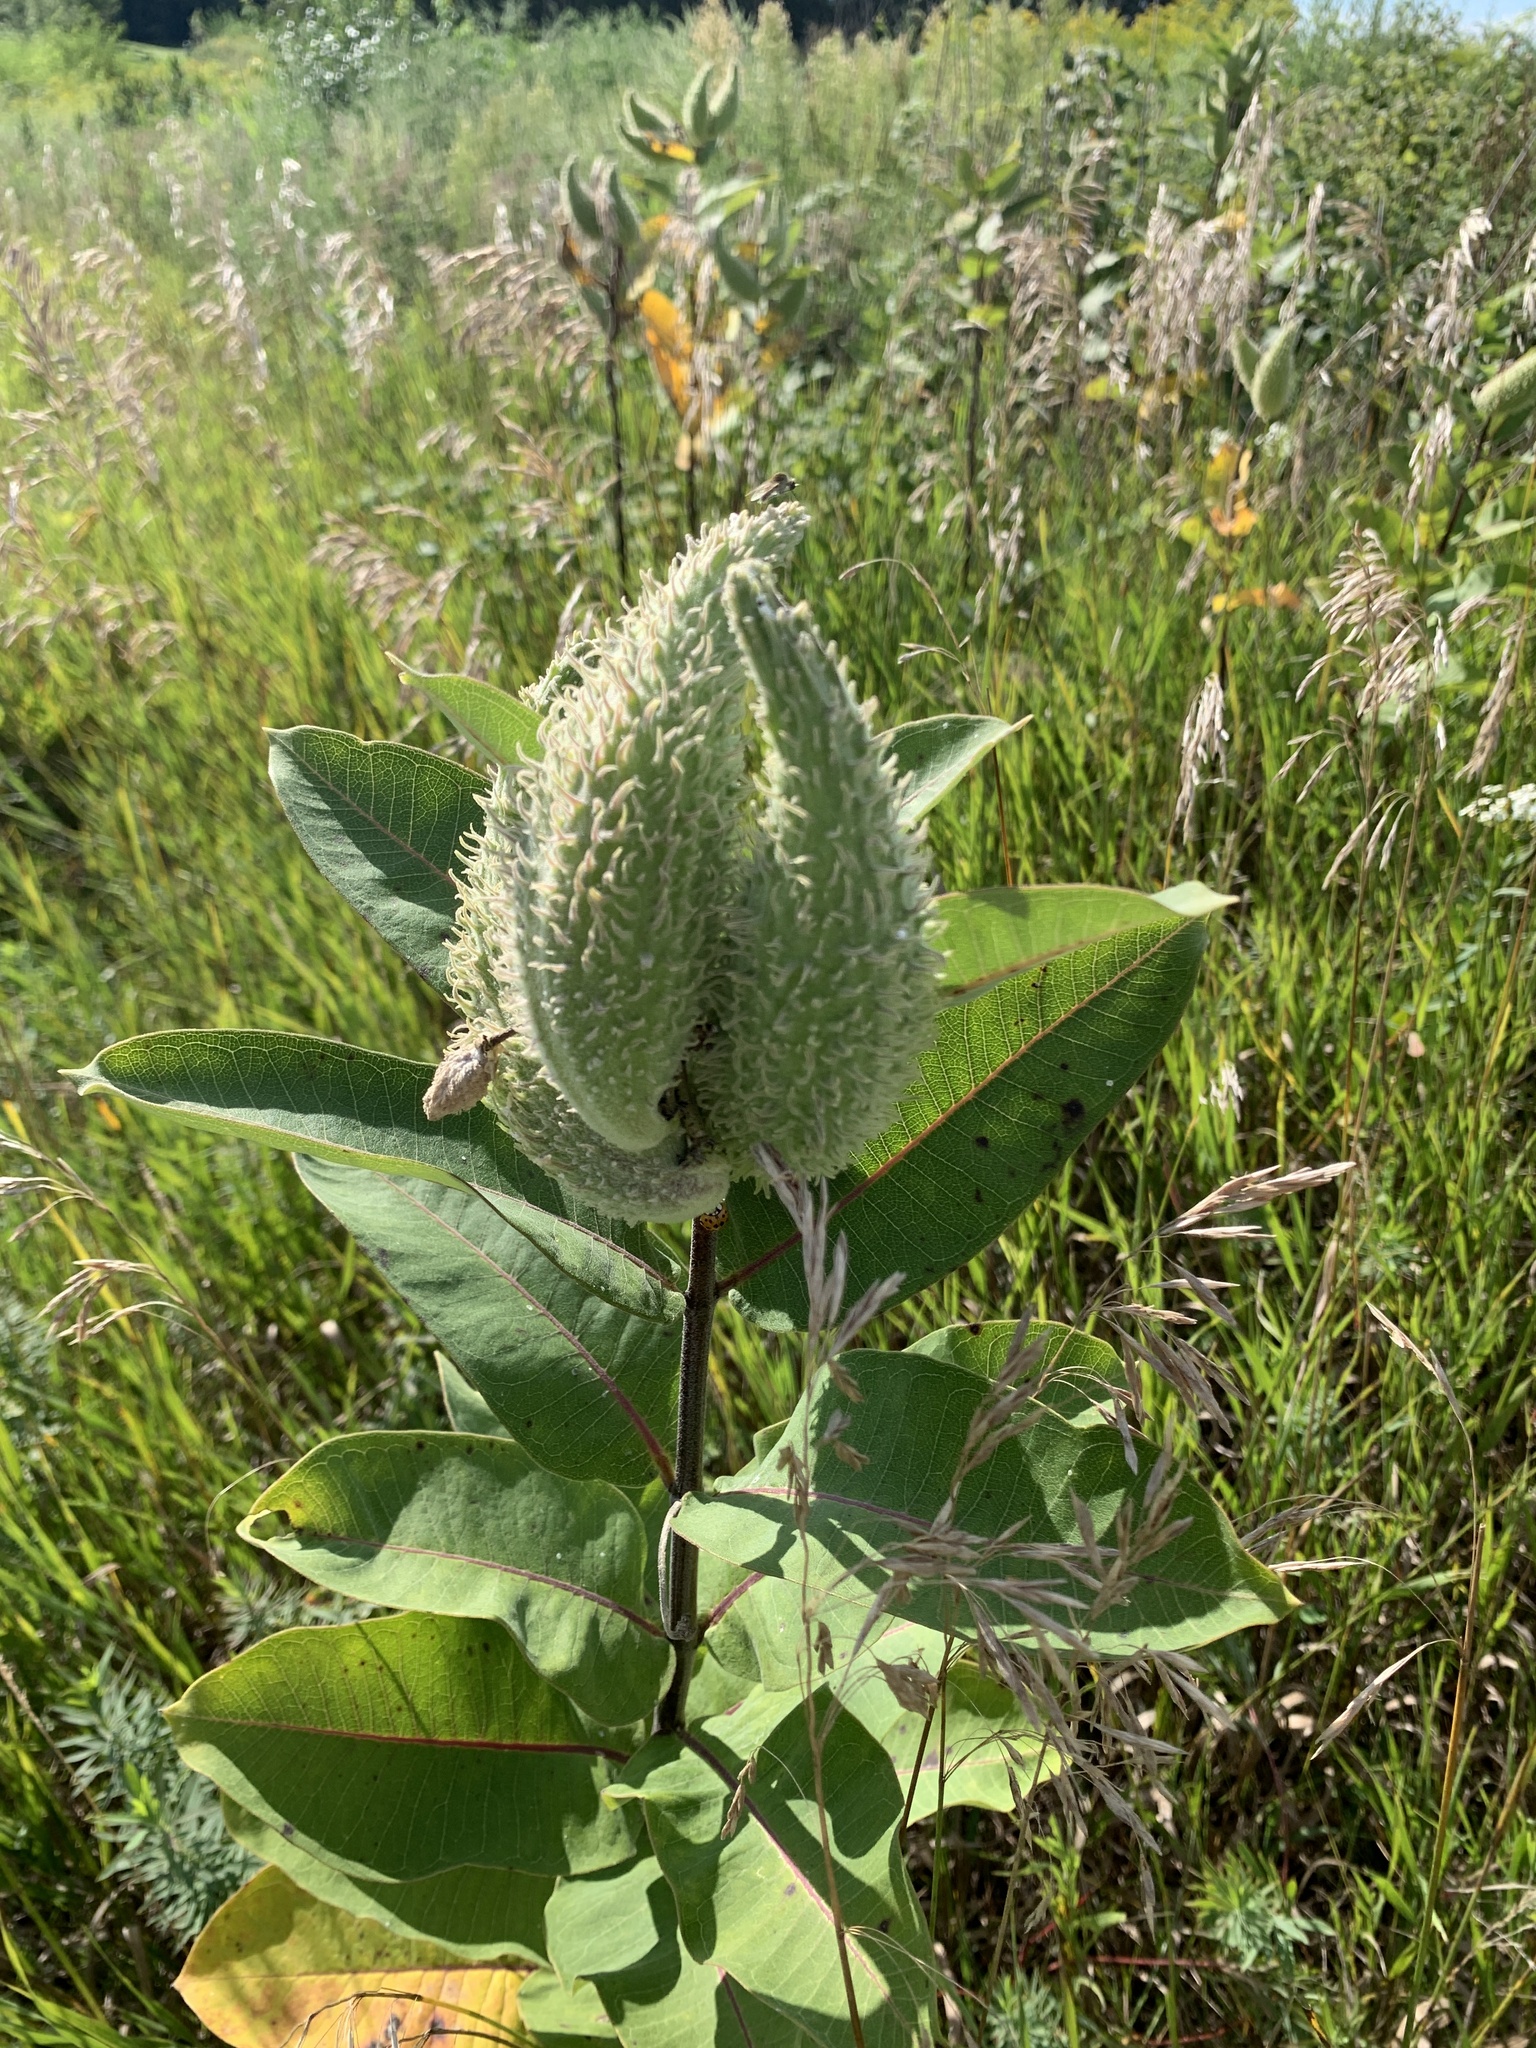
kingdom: Plantae
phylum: Tracheophyta
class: Magnoliopsida
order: Gentianales
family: Apocynaceae
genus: Asclepias
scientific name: Asclepias syriaca
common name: Common milkweed
